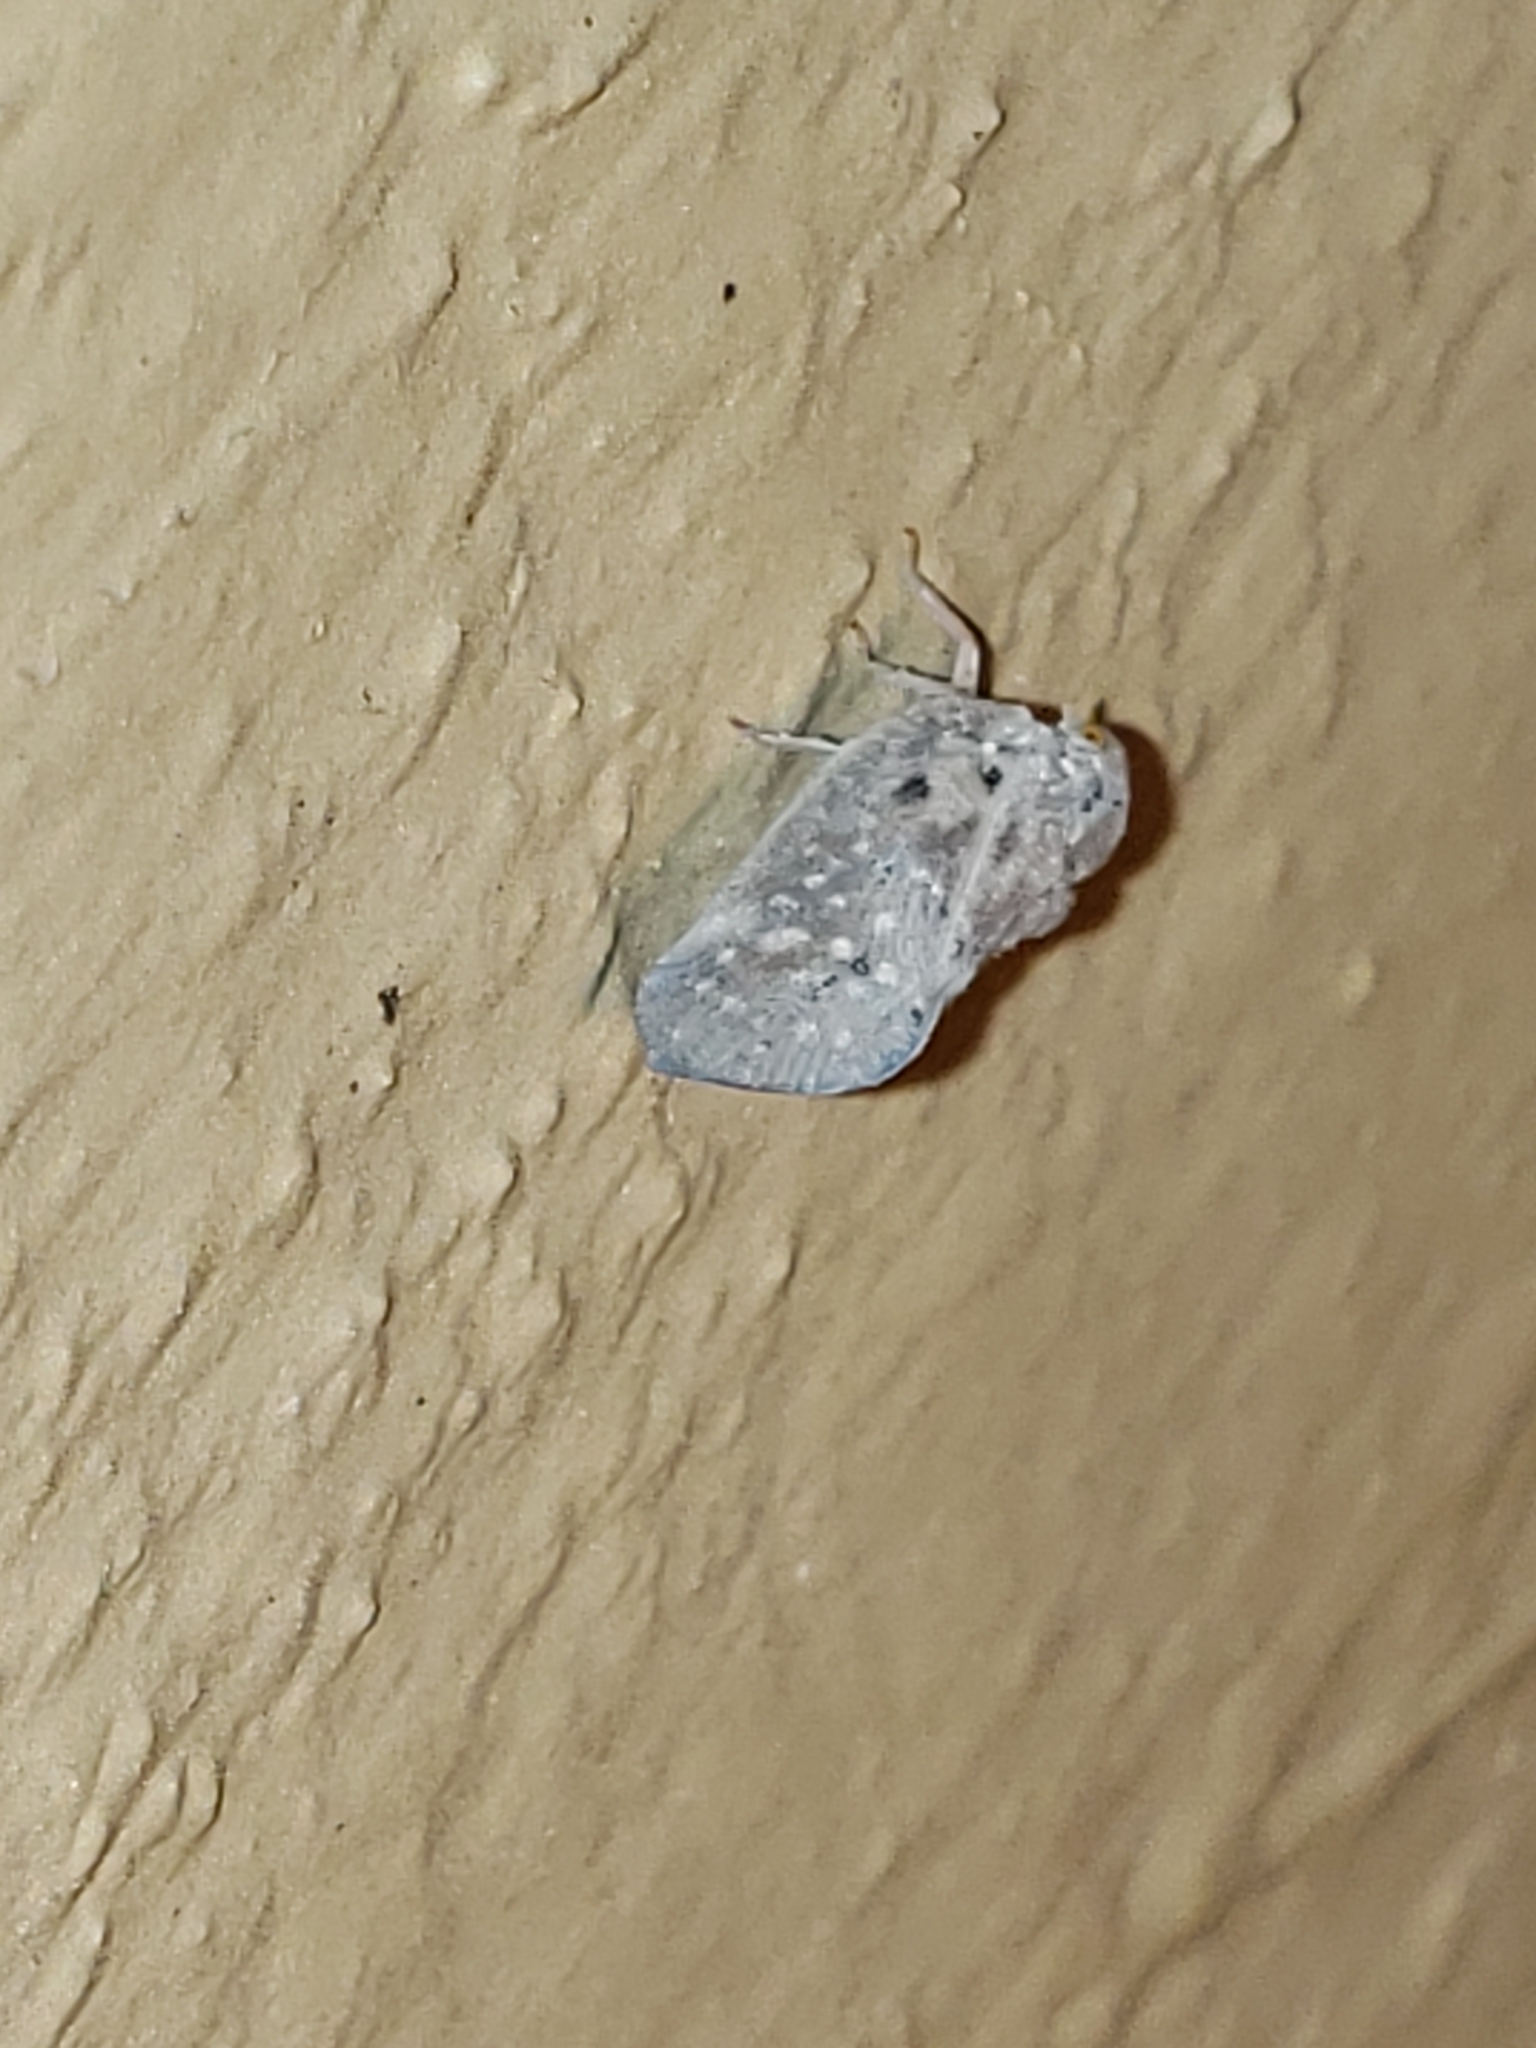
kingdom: Animalia
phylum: Arthropoda
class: Insecta
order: Hemiptera
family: Flatidae
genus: Metcalfa
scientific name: Metcalfa pruinosa
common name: Citrus flatid planthopper
